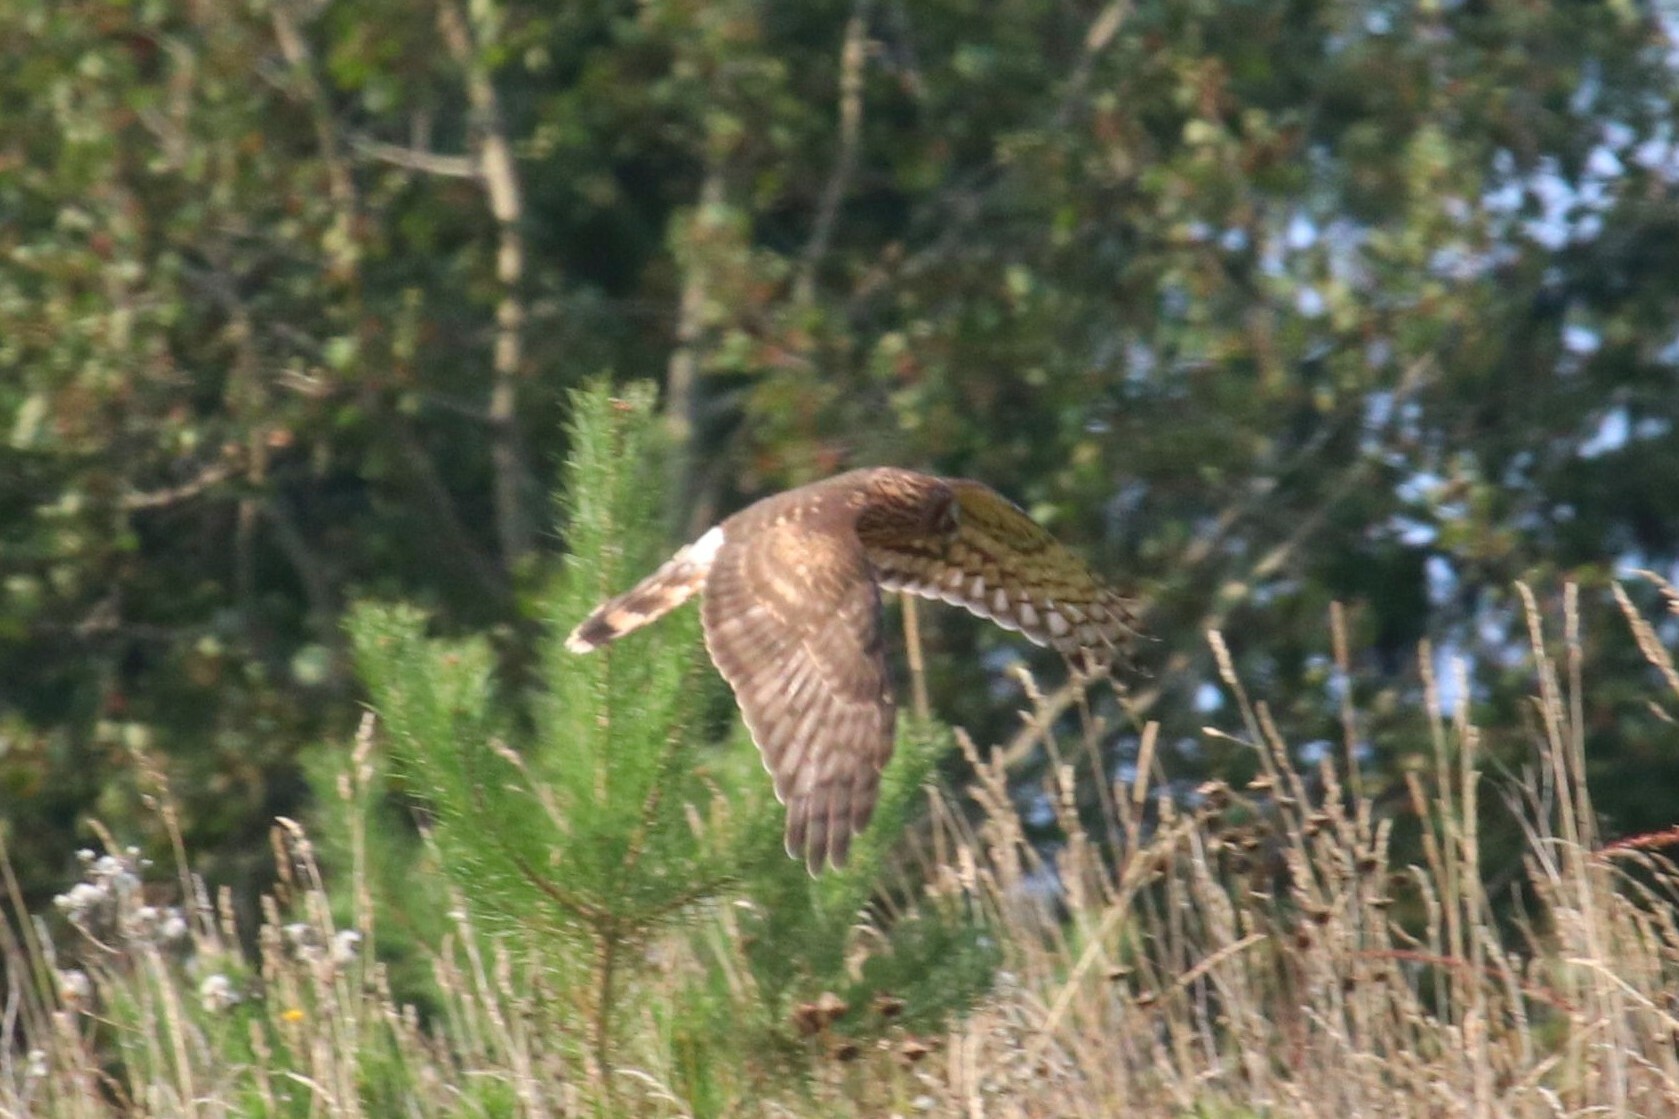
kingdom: Animalia
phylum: Chordata
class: Aves
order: Accipitriformes
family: Accipitridae
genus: Circus
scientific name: Circus cyaneus
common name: Hen harrier
